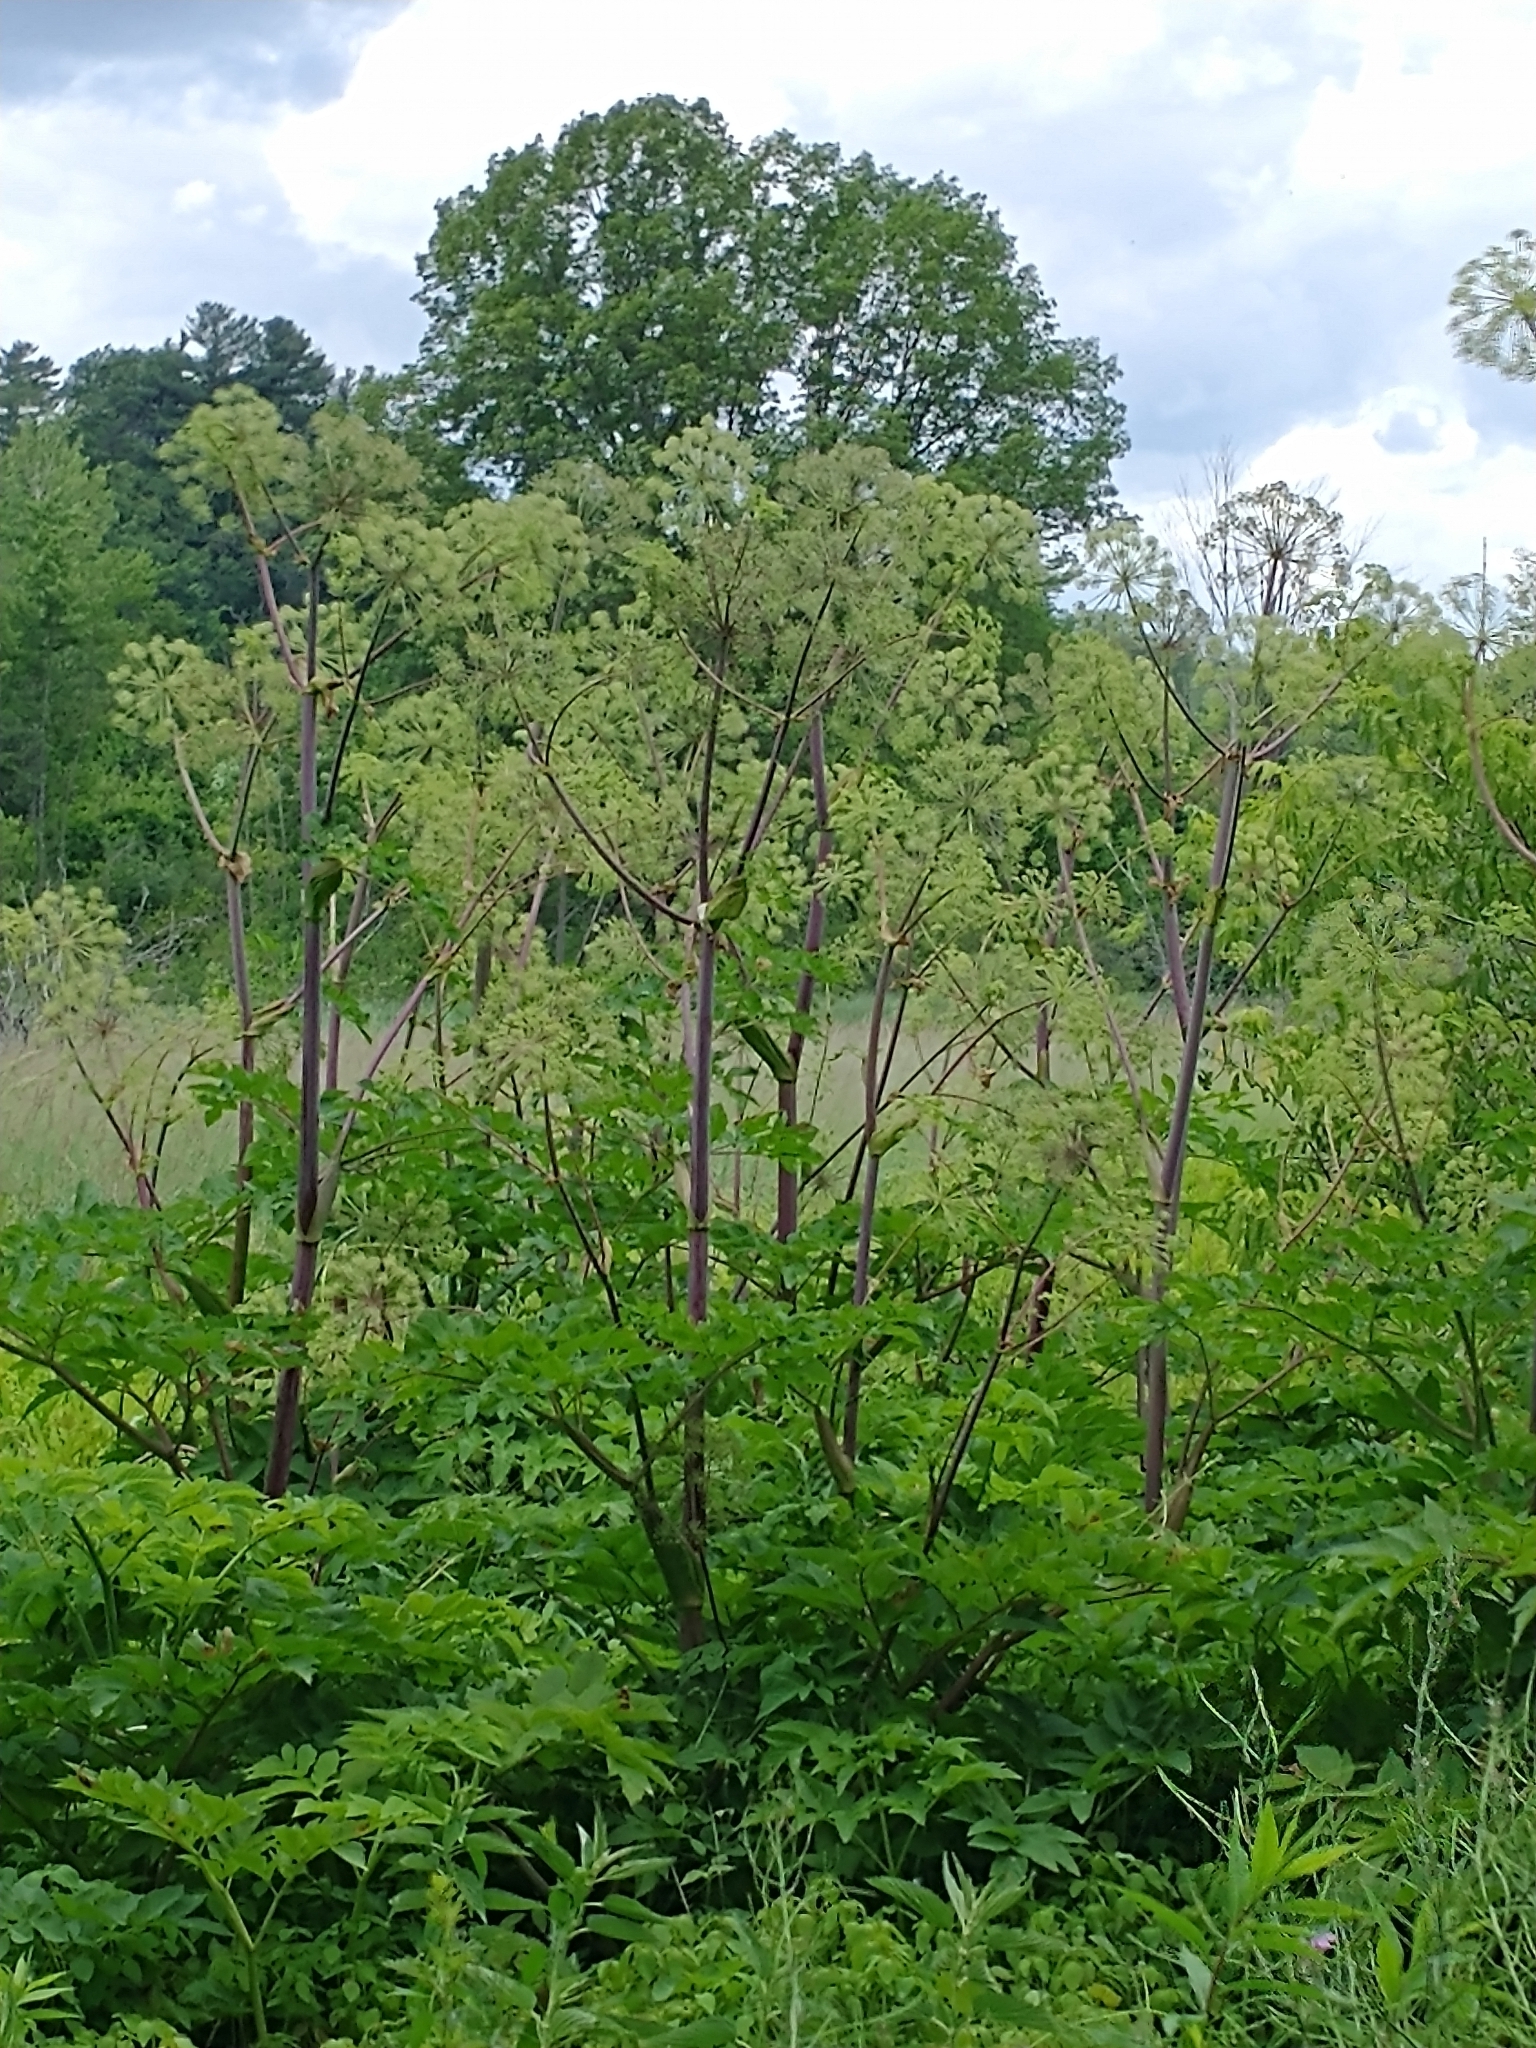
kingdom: Plantae
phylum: Tracheophyta
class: Magnoliopsida
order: Apiales
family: Apiaceae
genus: Angelica
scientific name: Angelica atropurpurea
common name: Great angelica
